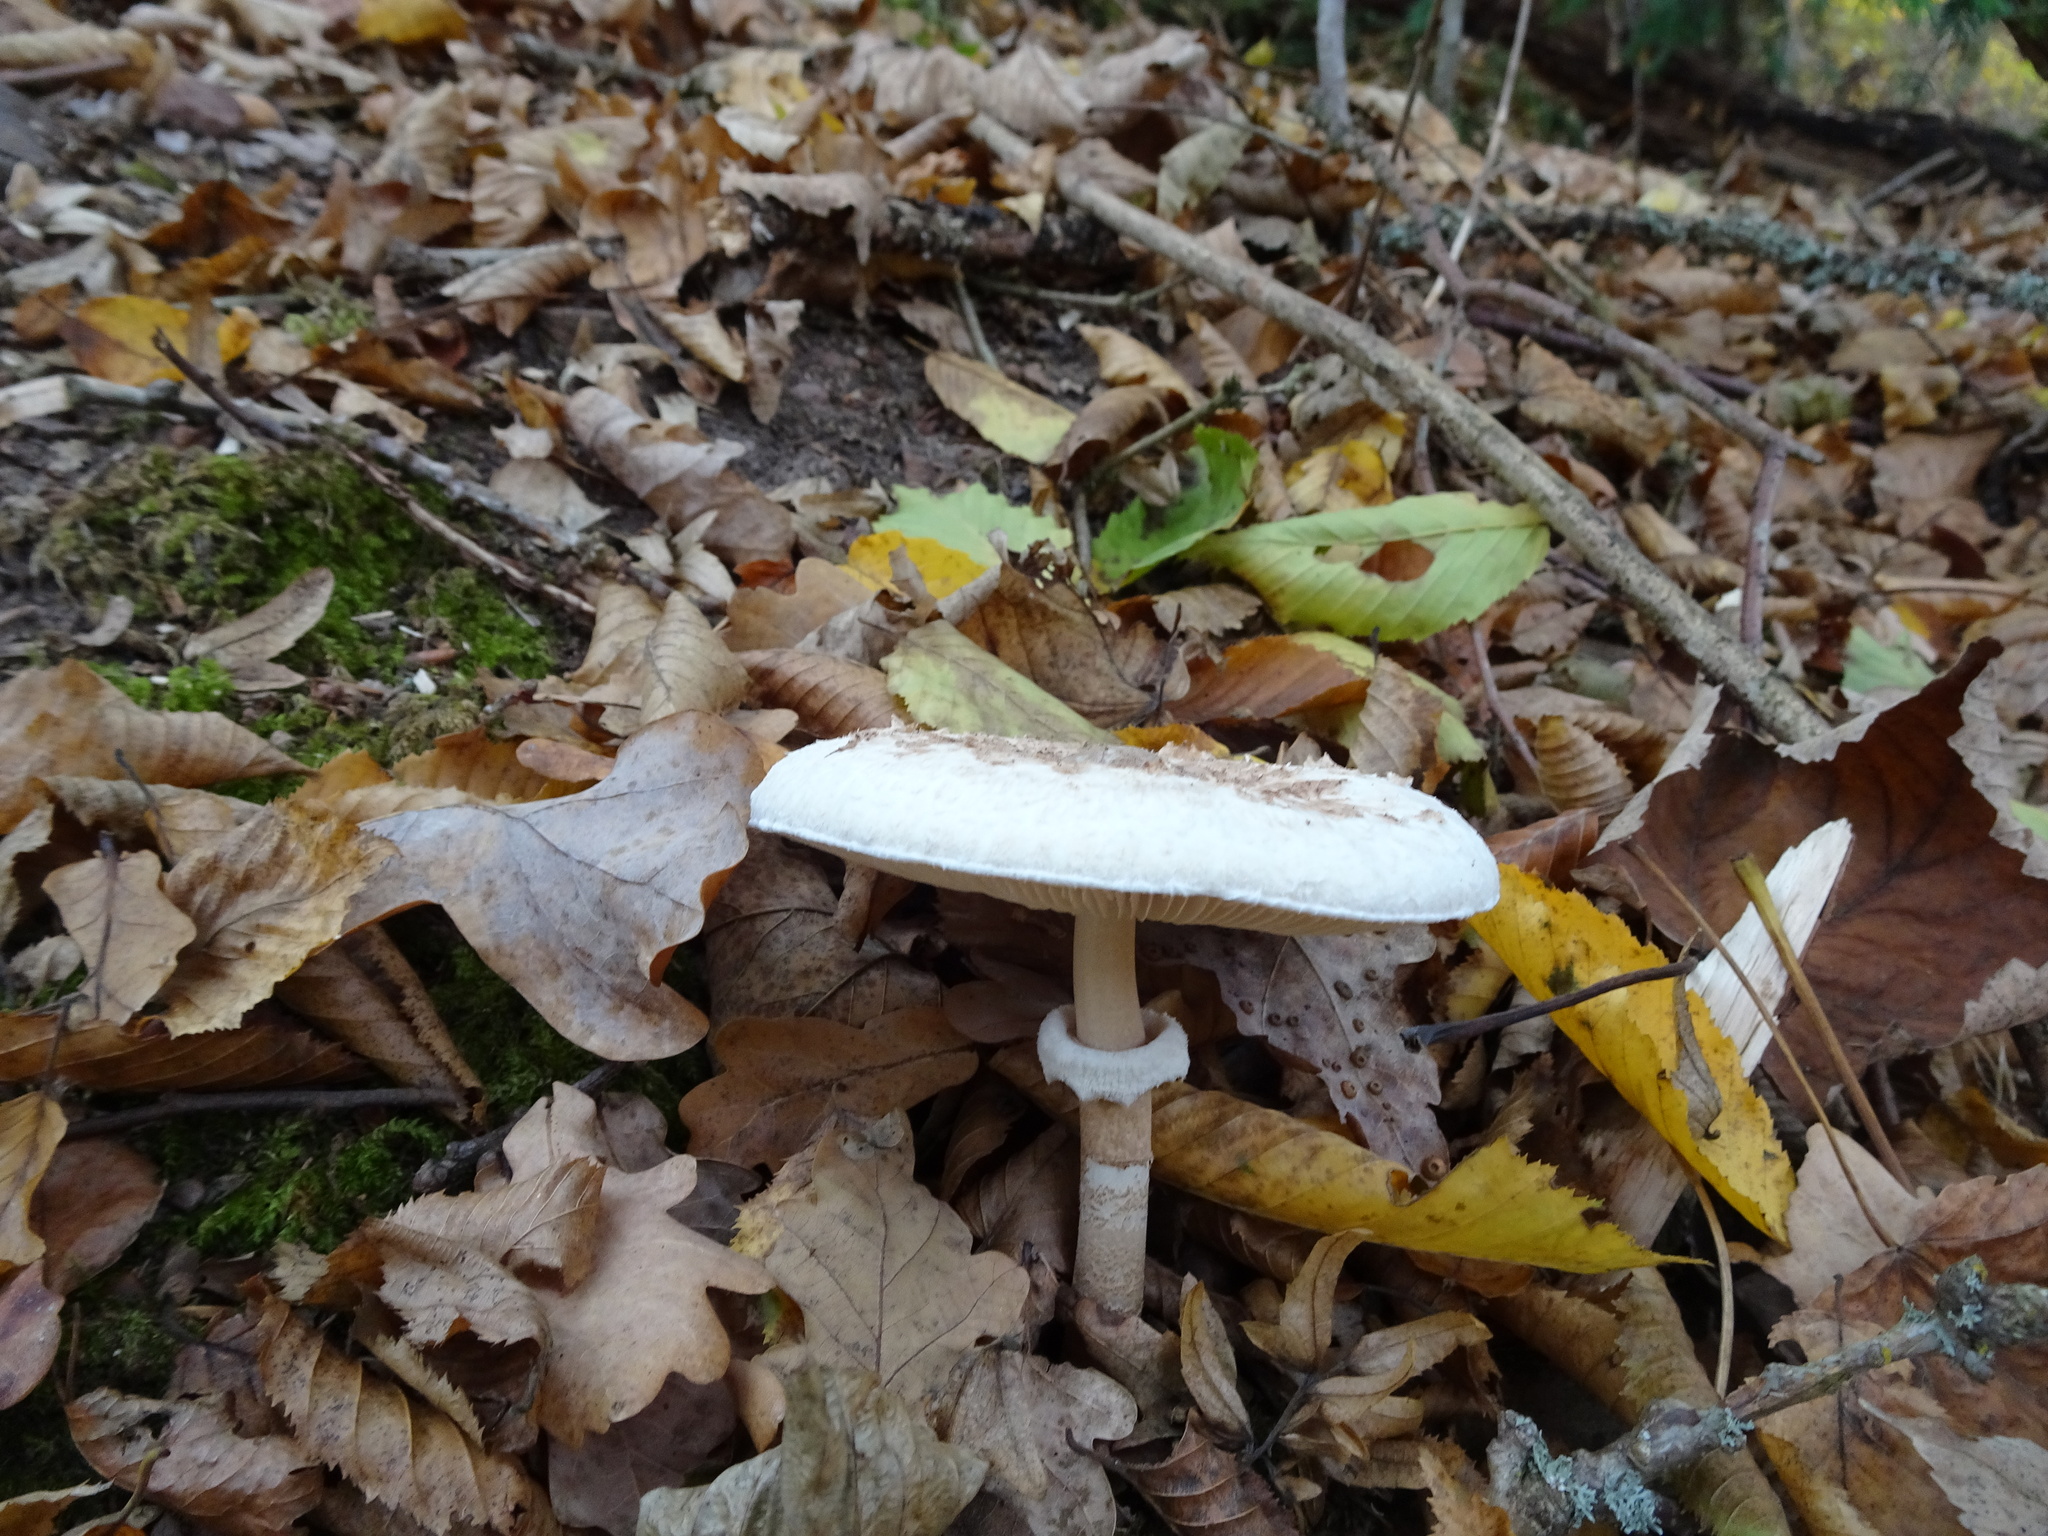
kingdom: Fungi
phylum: Basidiomycota
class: Agaricomycetes
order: Agaricales
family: Agaricaceae
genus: Macrolepiota
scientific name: Macrolepiota procera
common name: Parasol
